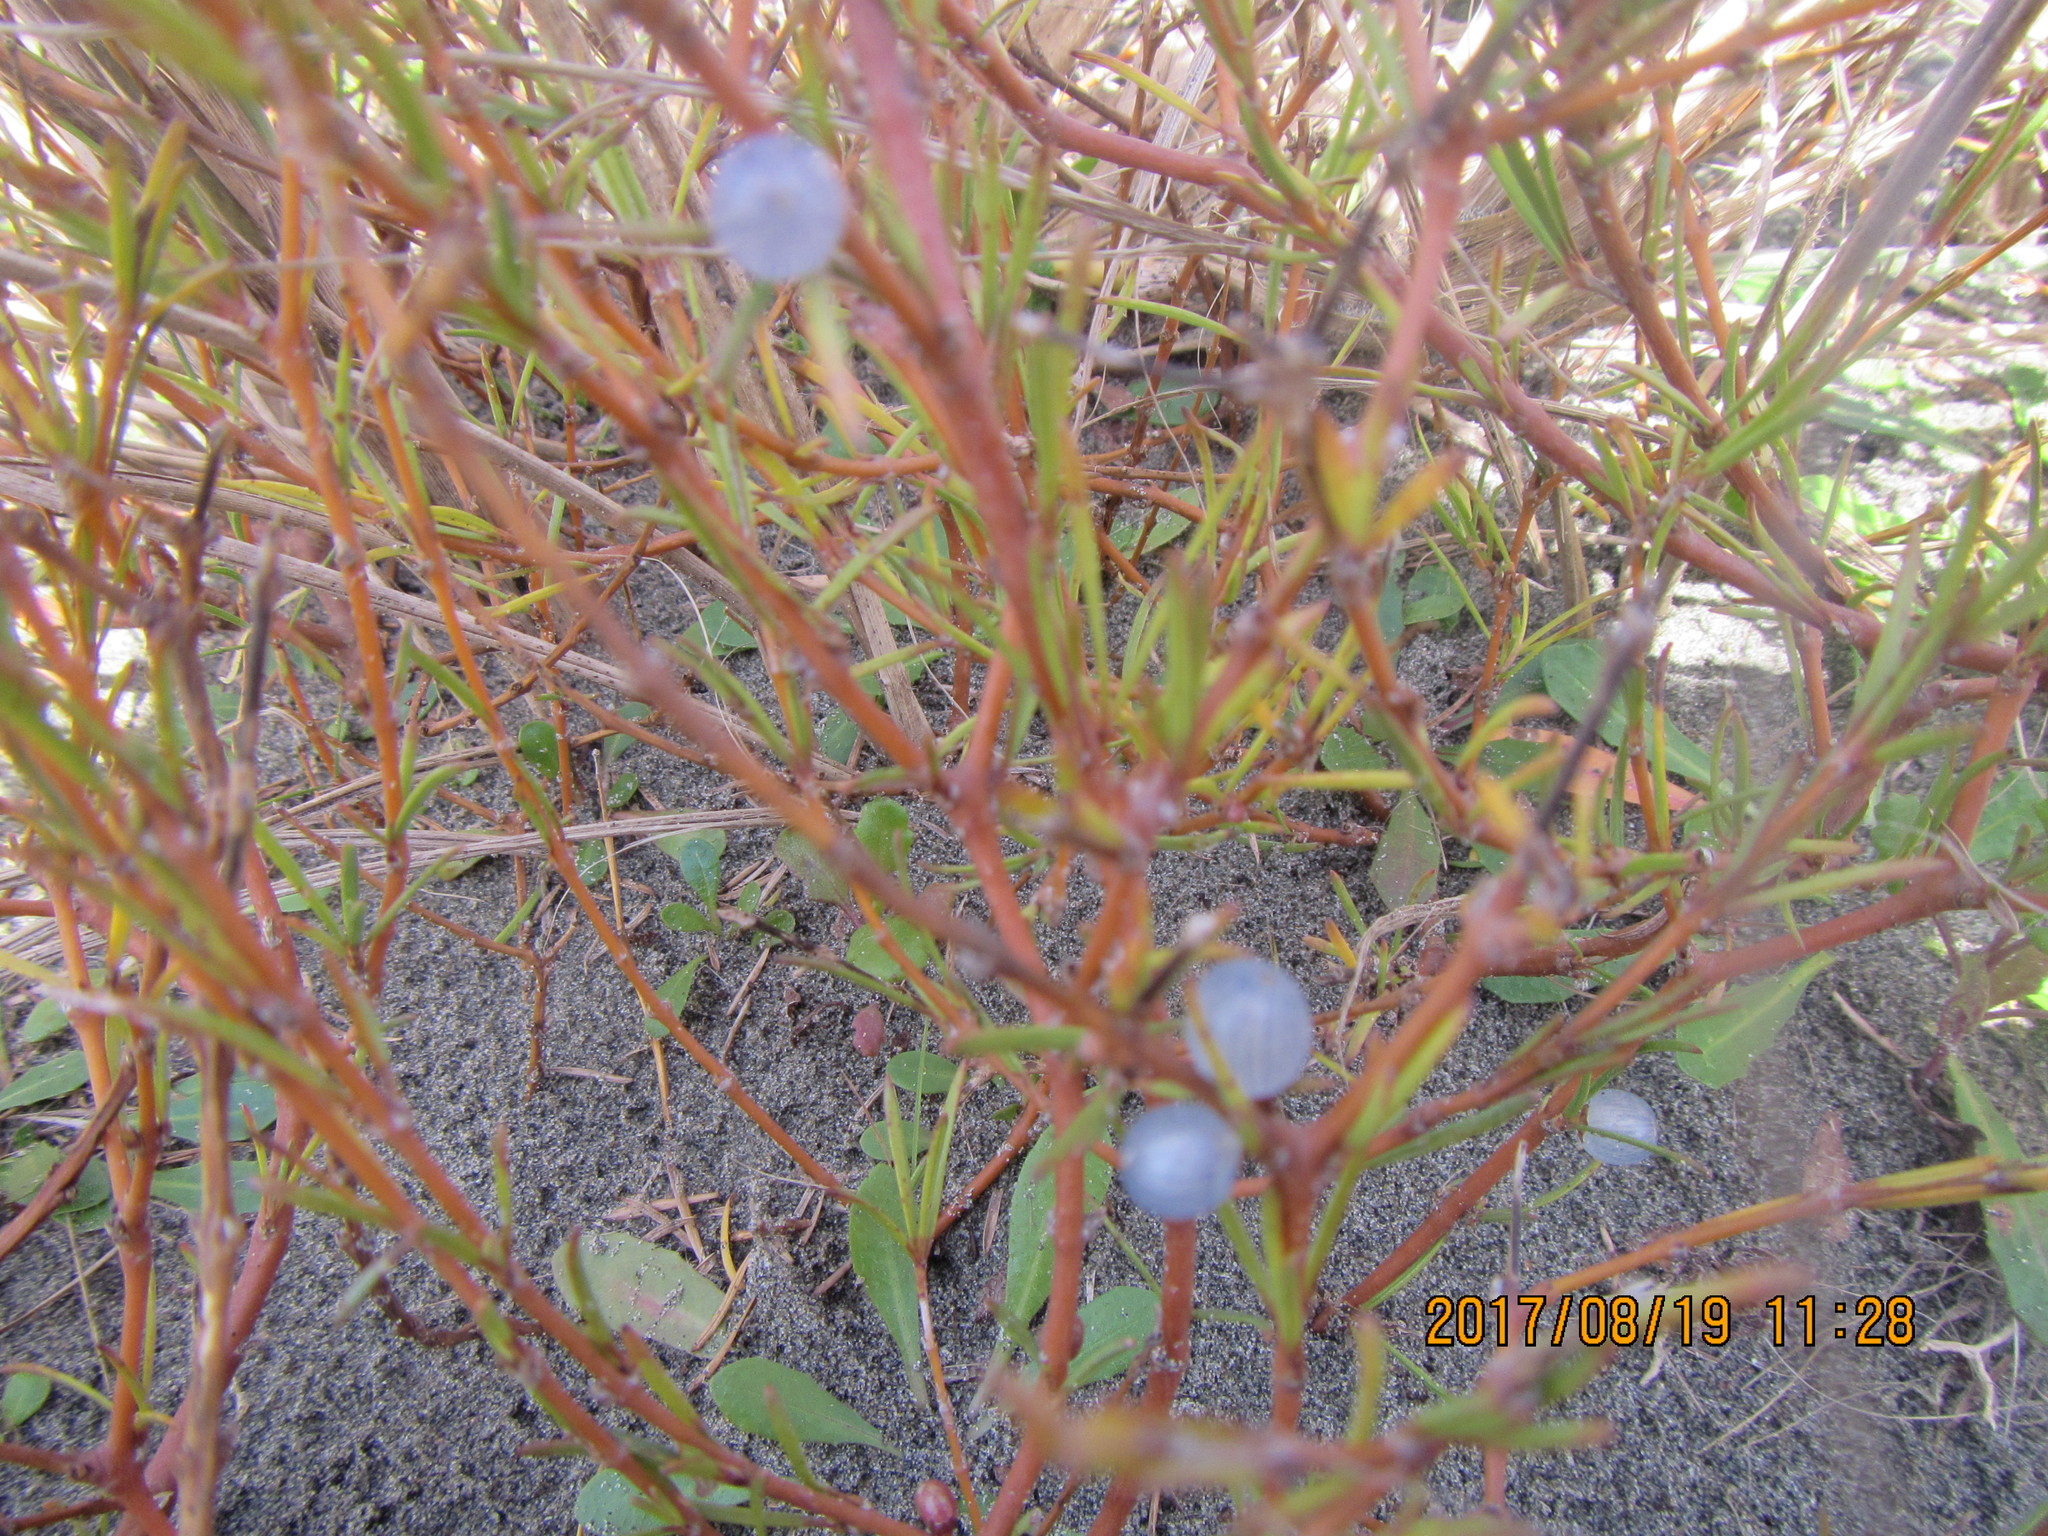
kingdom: Plantae
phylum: Tracheophyta
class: Magnoliopsida
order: Gentianales
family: Rubiaceae
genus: Coprosma
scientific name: Coprosma acerosa
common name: Sand coprosma
